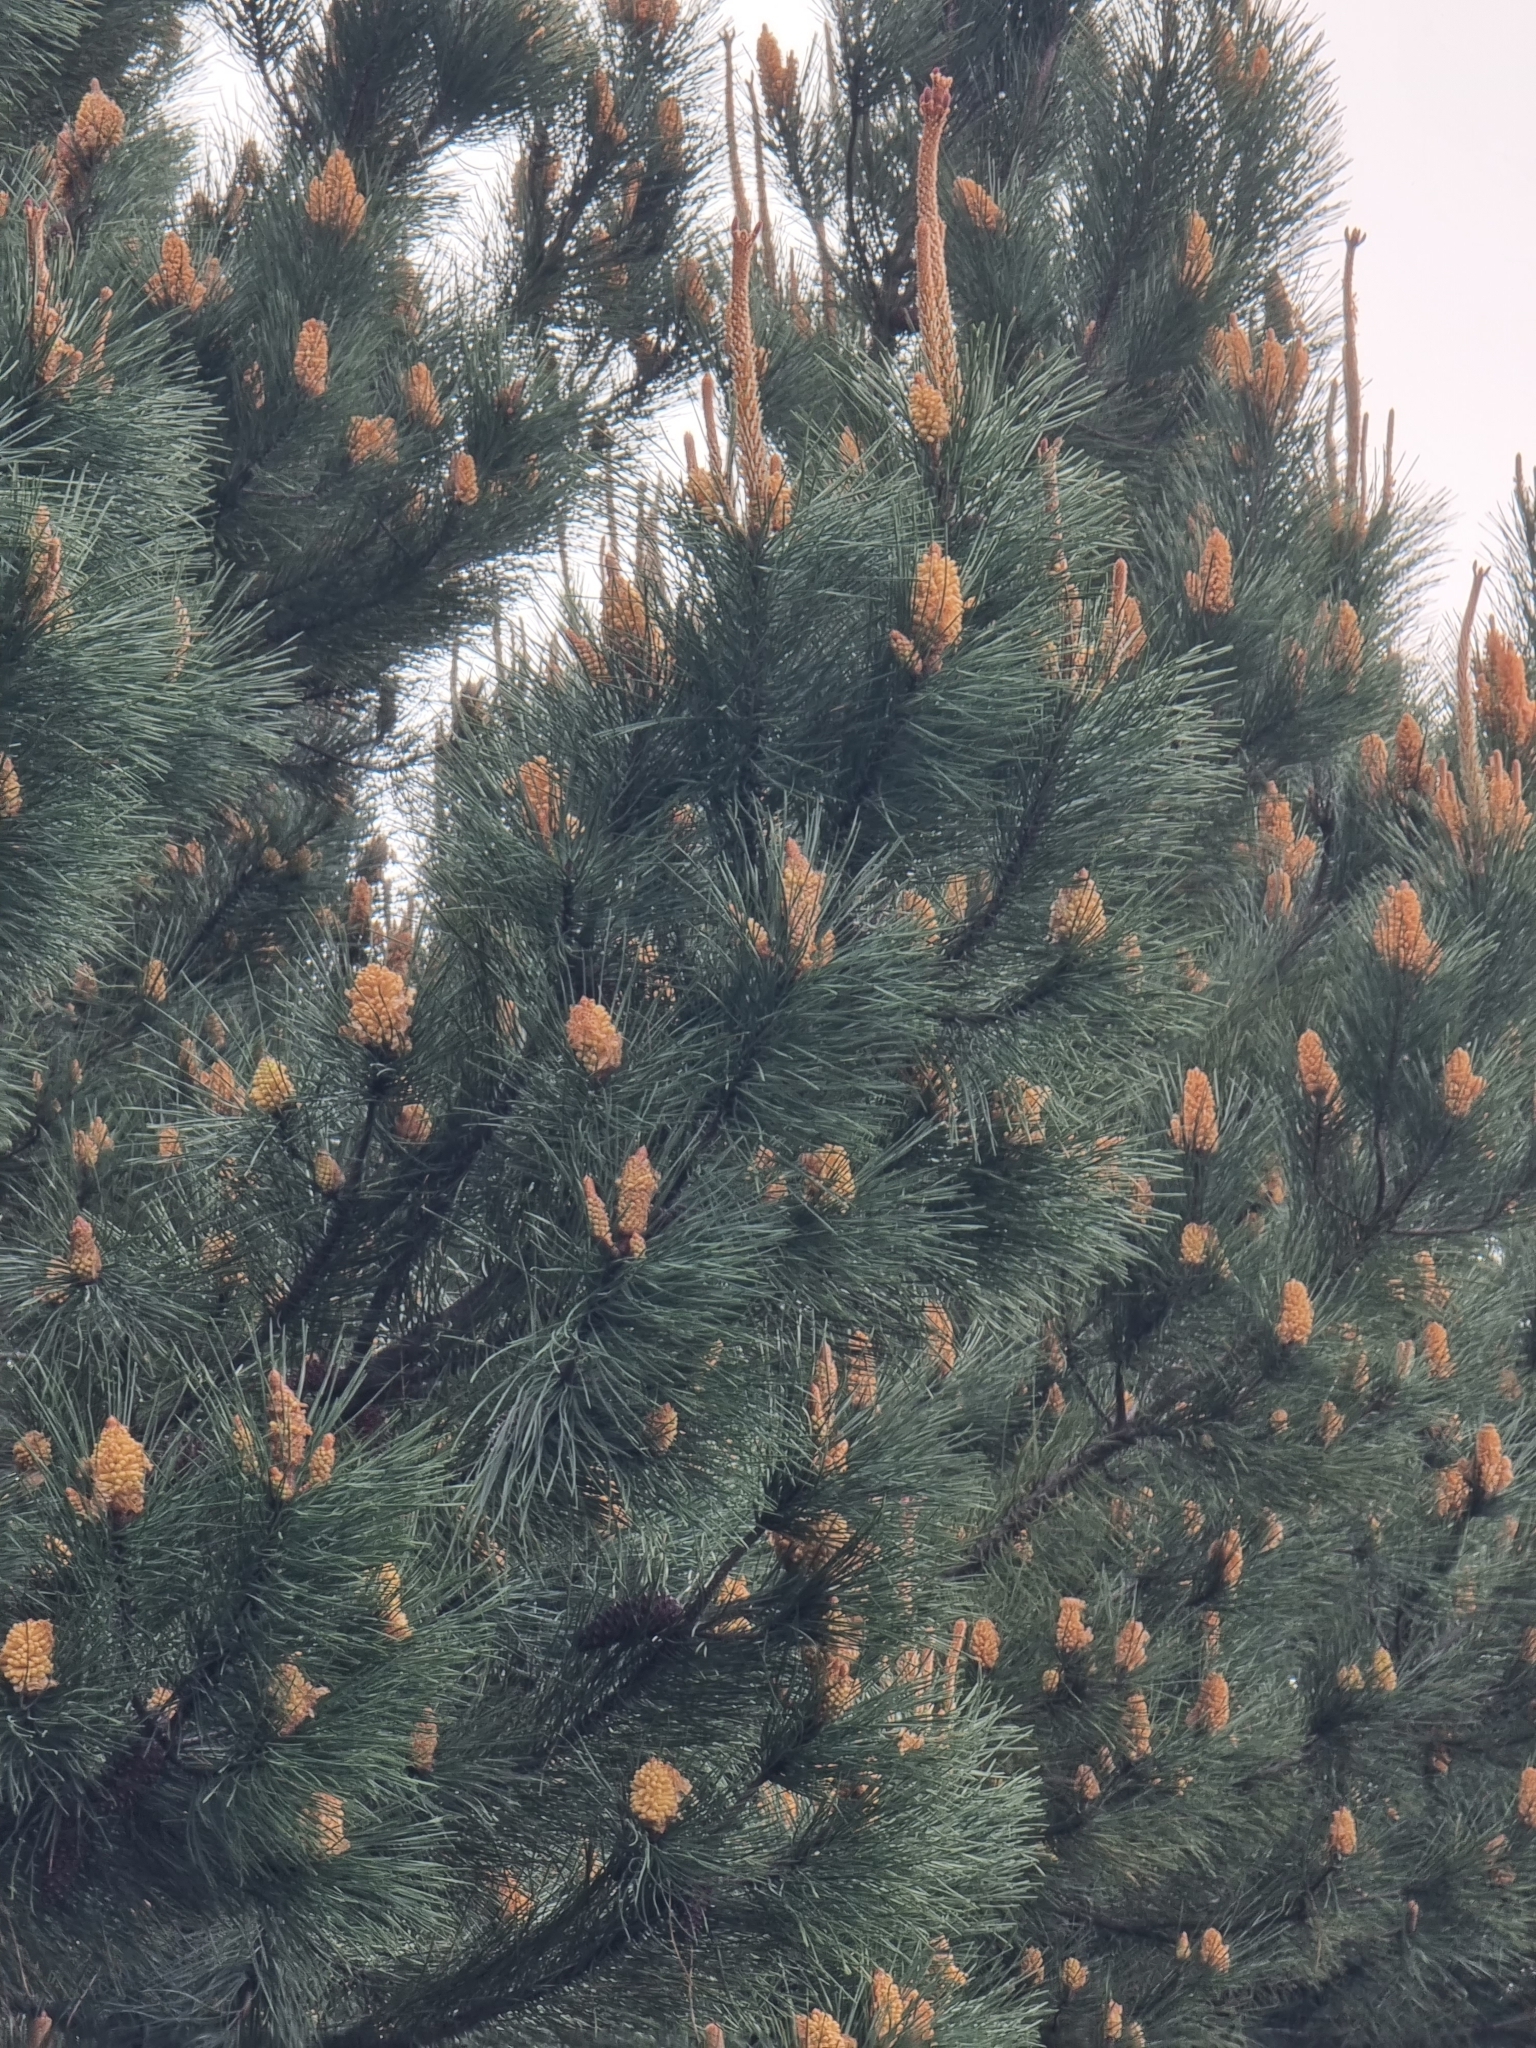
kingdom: Plantae
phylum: Tracheophyta
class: Pinopsida
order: Pinales
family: Pinaceae
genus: Pinus
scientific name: Pinus pinaster
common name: Maritime pine
